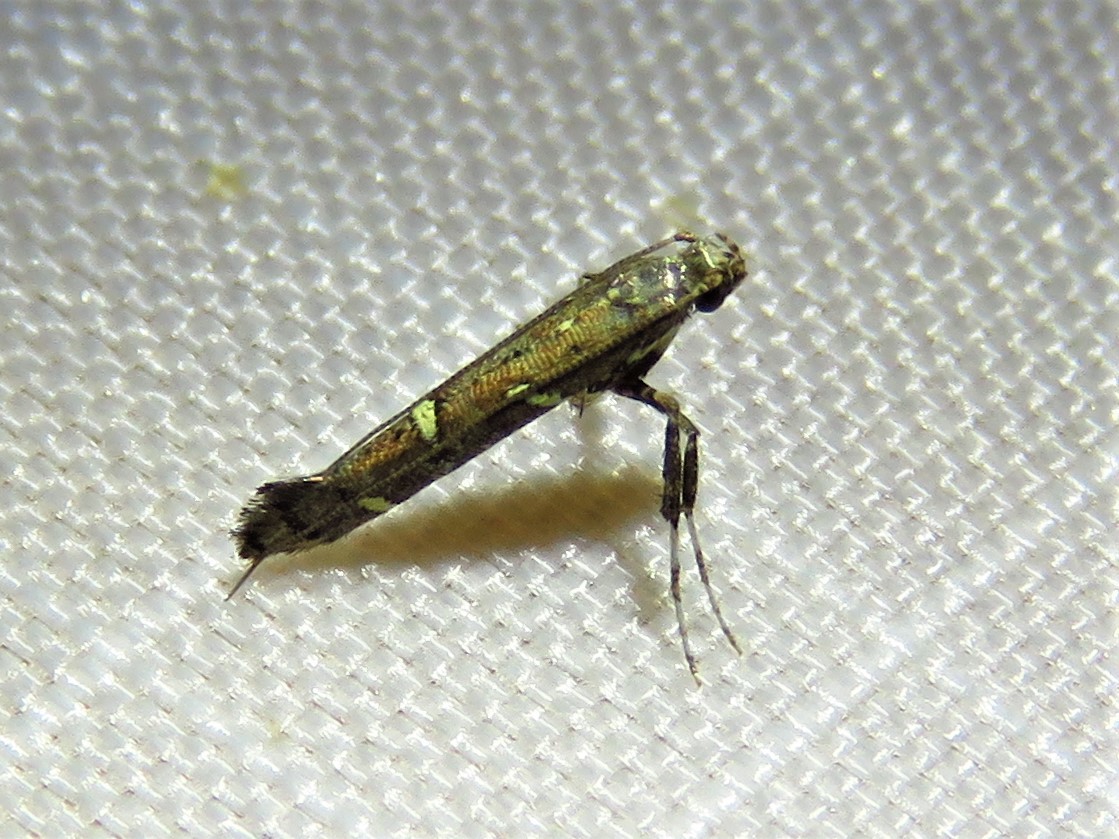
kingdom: Animalia
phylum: Arthropoda
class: Insecta
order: Lepidoptera
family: Gracillariidae
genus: Caloptilia
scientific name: Caloptilia triadicae
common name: Tallow leaf roller
